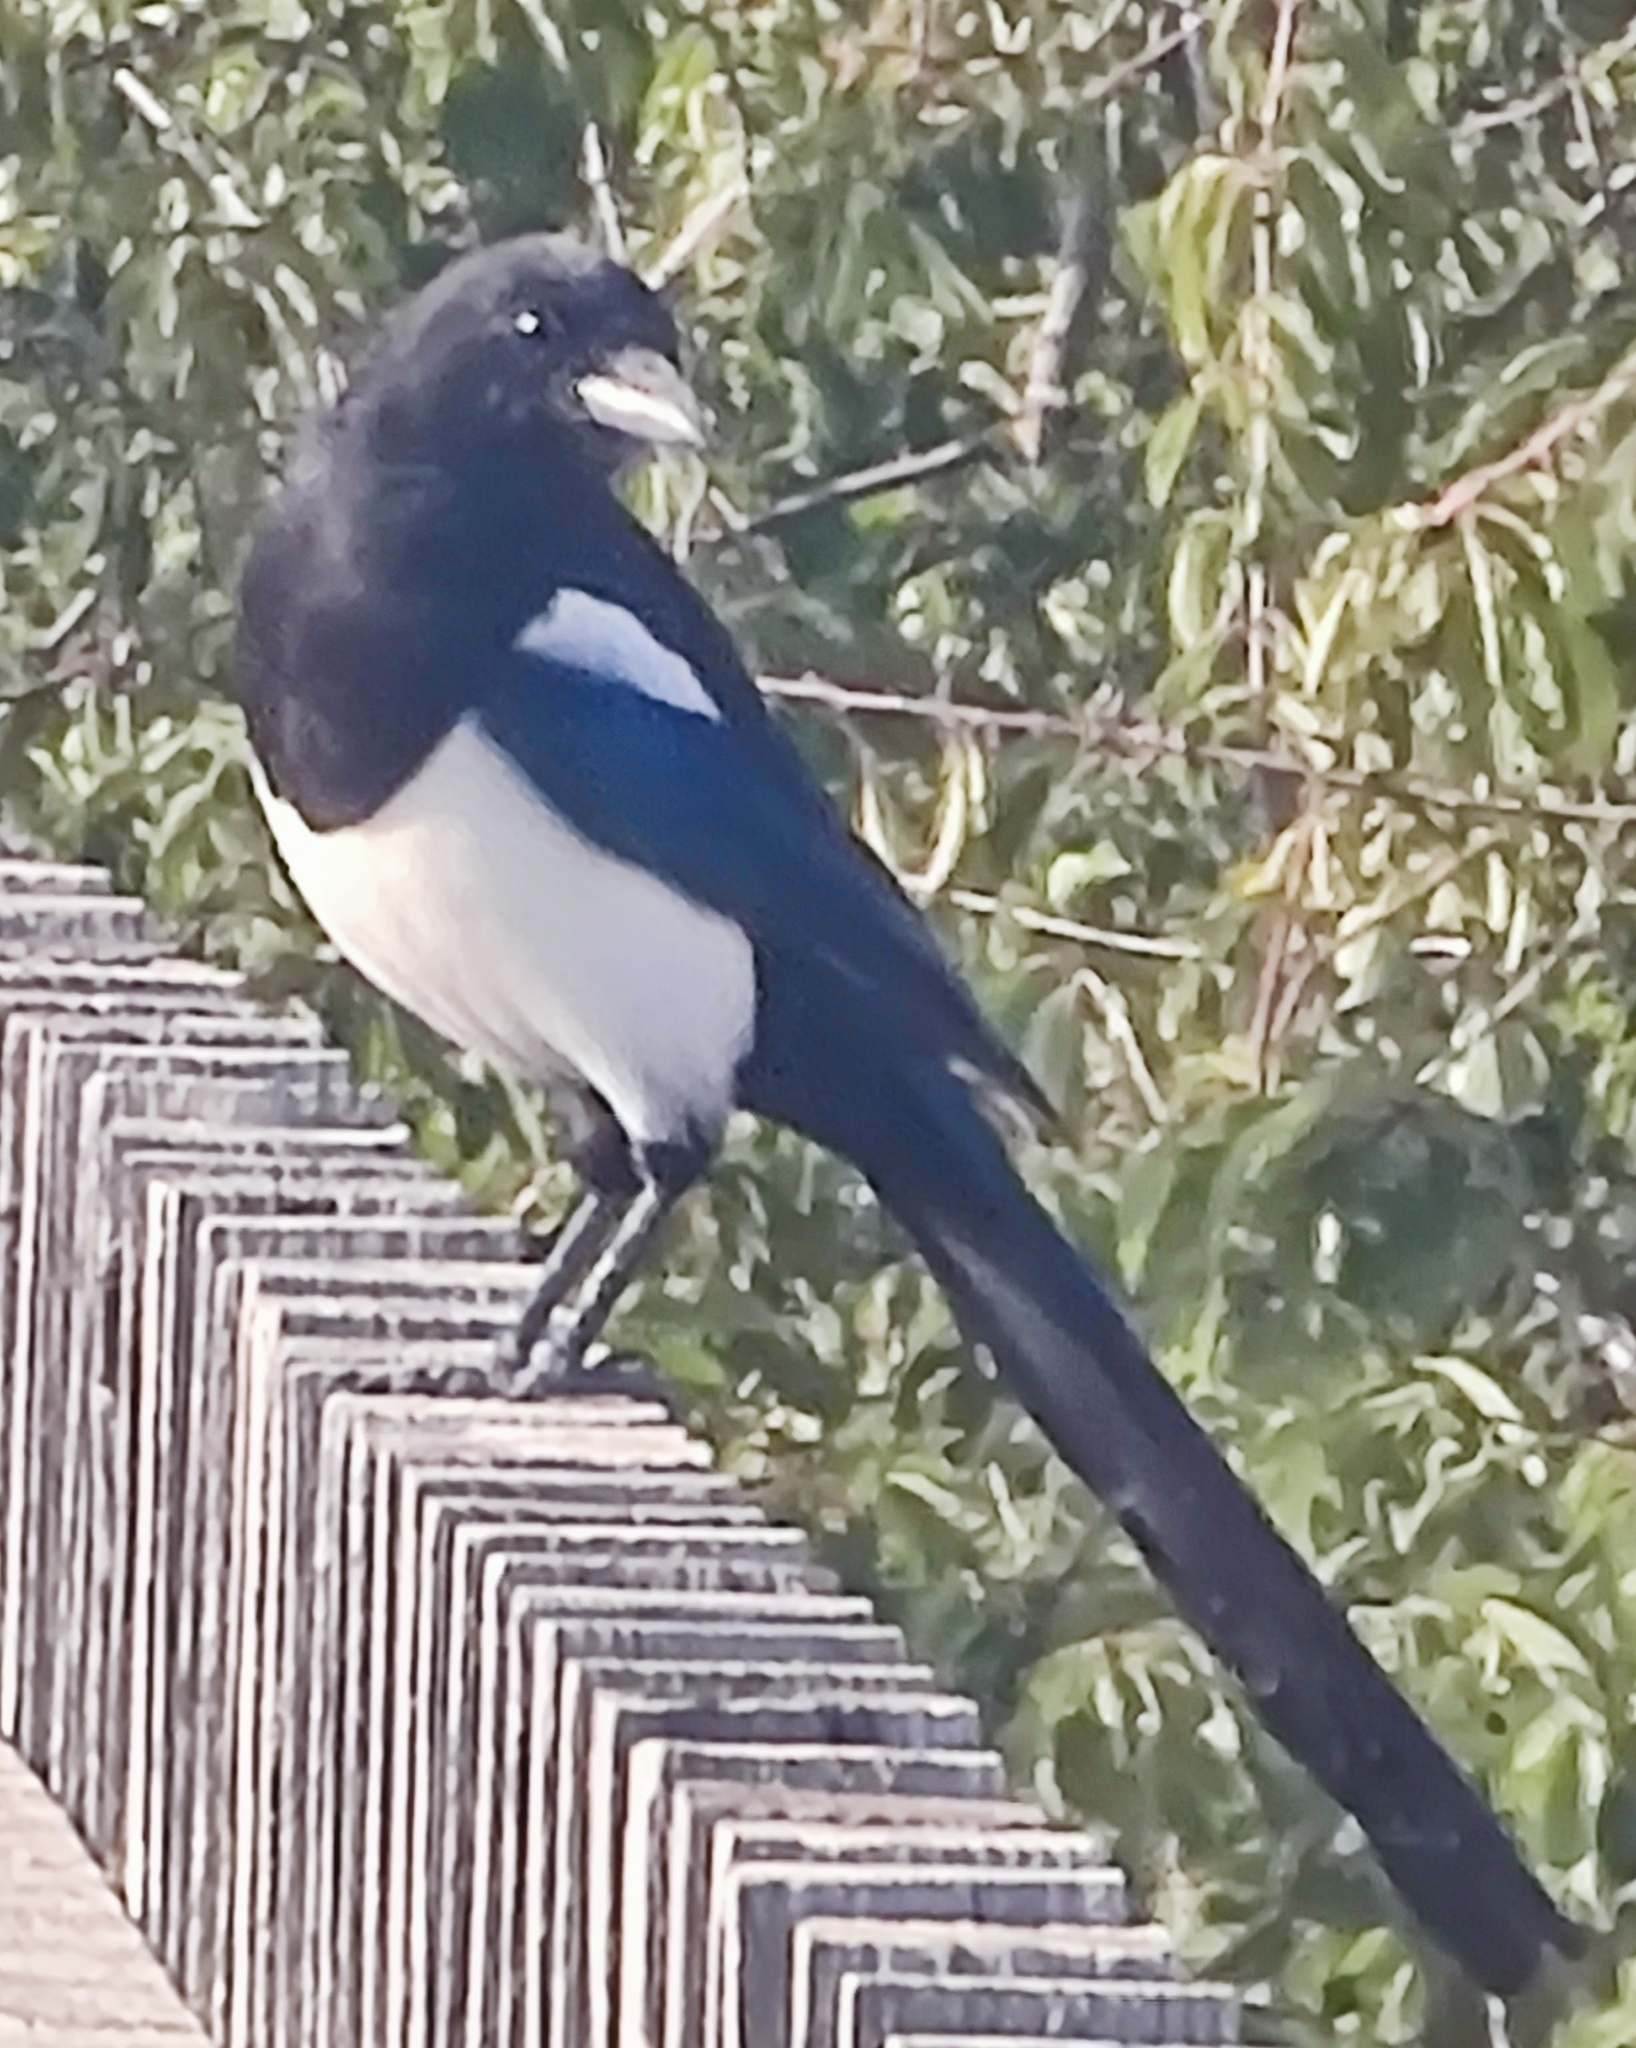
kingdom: Animalia
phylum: Chordata
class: Aves
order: Passeriformes
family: Corvidae
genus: Pica
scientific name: Pica pica
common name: Eurasian magpie
